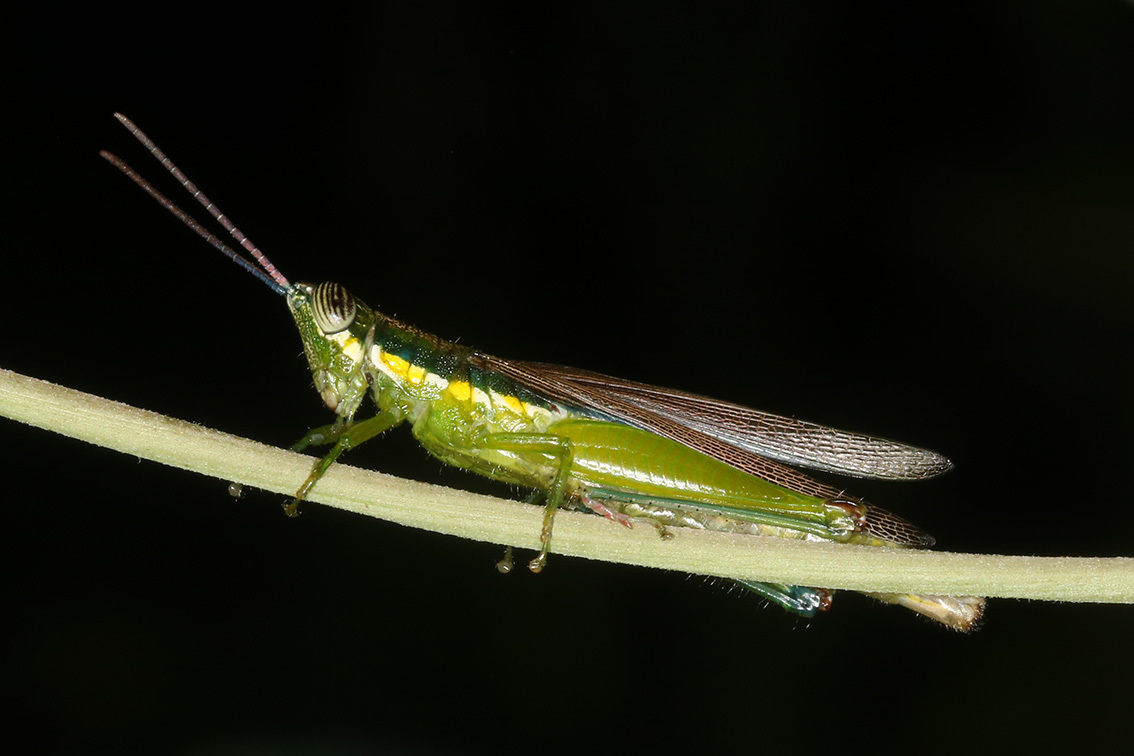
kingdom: Animalia
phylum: Arthropoda
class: Insecta
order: Orthoptera
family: Acrididae
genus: Stenopola
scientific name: Stenopola puncticeps
